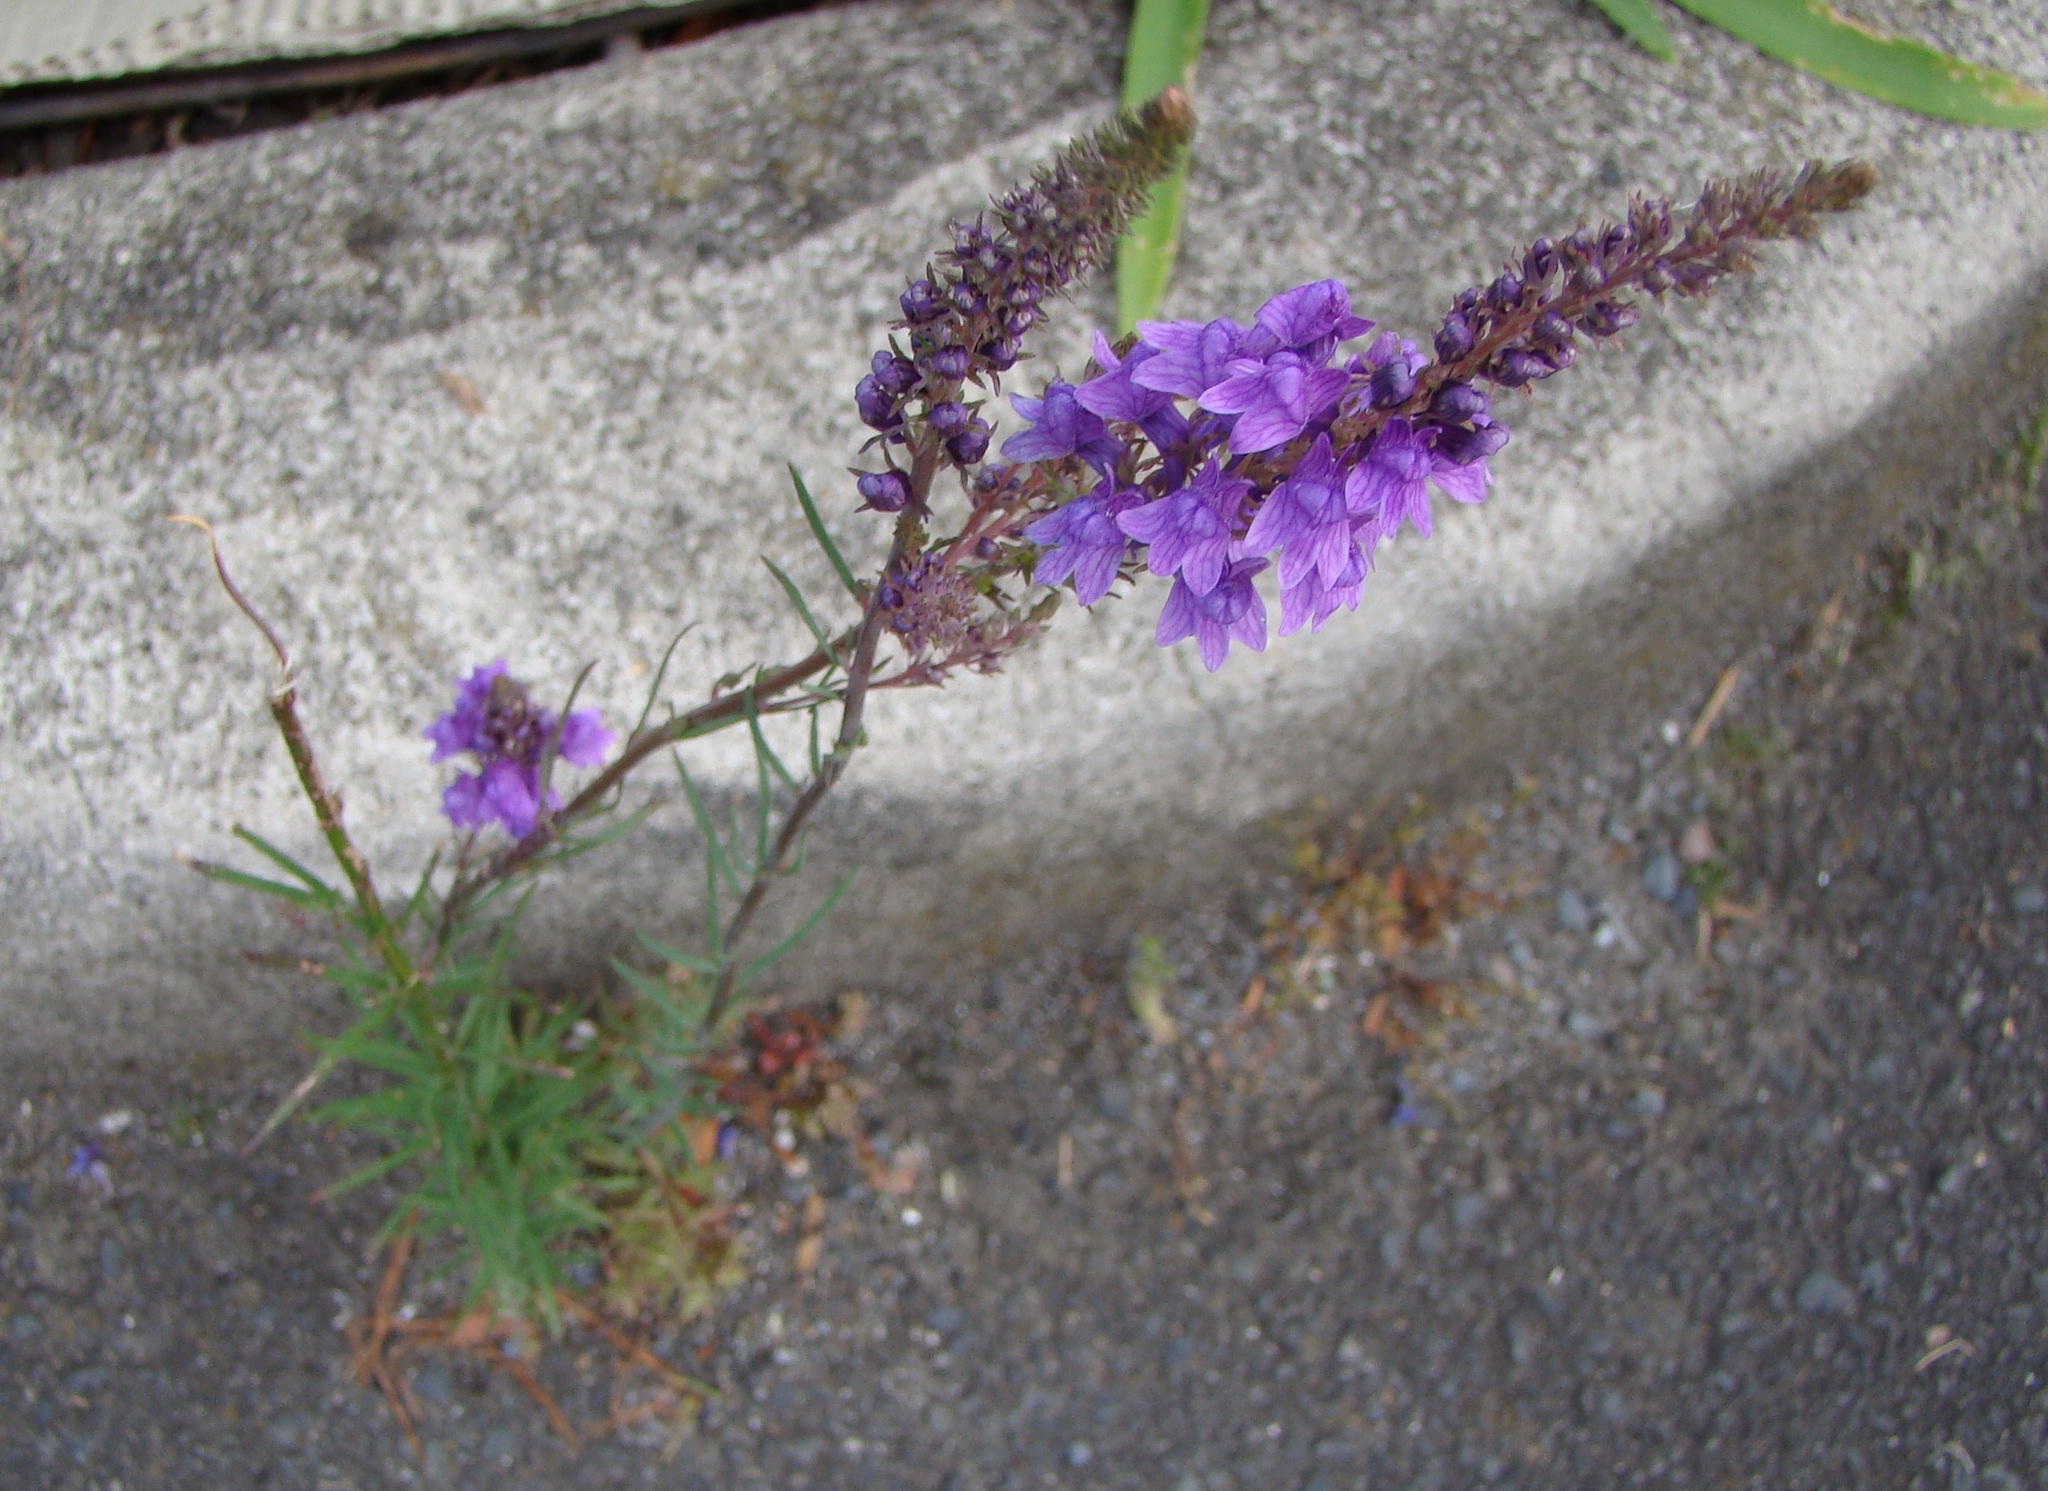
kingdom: Plantae
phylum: Tracheophyta
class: Magnoliopsida
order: Lamiales
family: Plantaginaceae
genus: Linaria
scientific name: Linaria purpurea
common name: Purple toadflax
